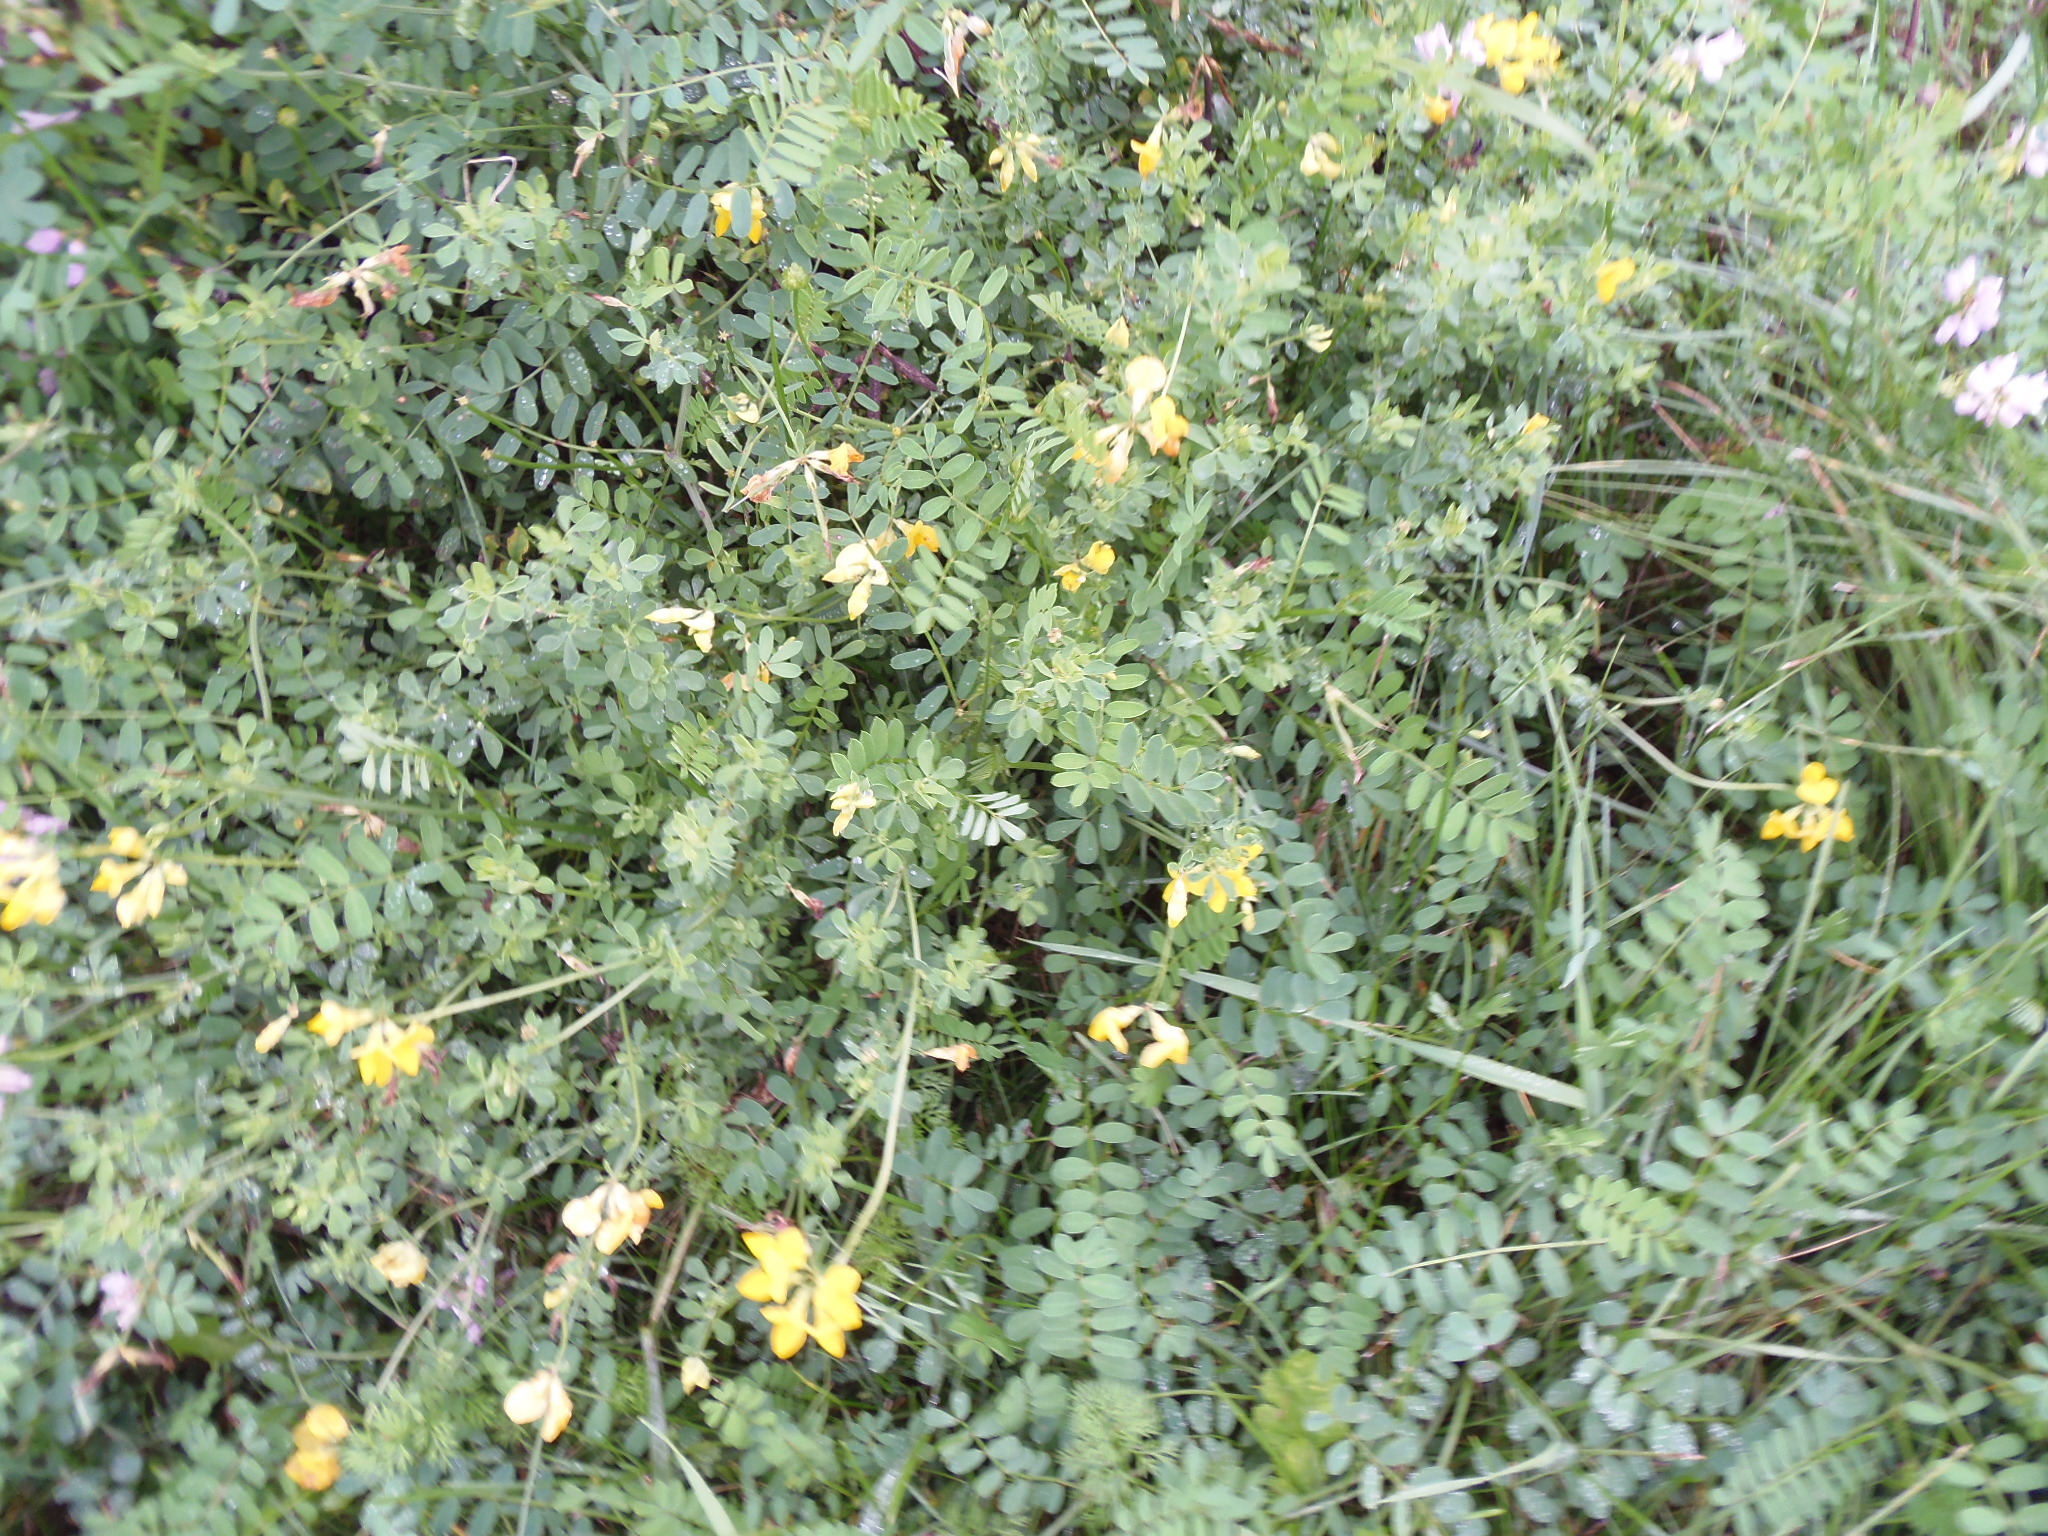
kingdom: Plantae
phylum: Tracheophyta
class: Magnoliopsida
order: Fabales
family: Fabaceae
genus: Lotus
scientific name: Lotus corniculatus
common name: Common bird's-foot-trefoil
